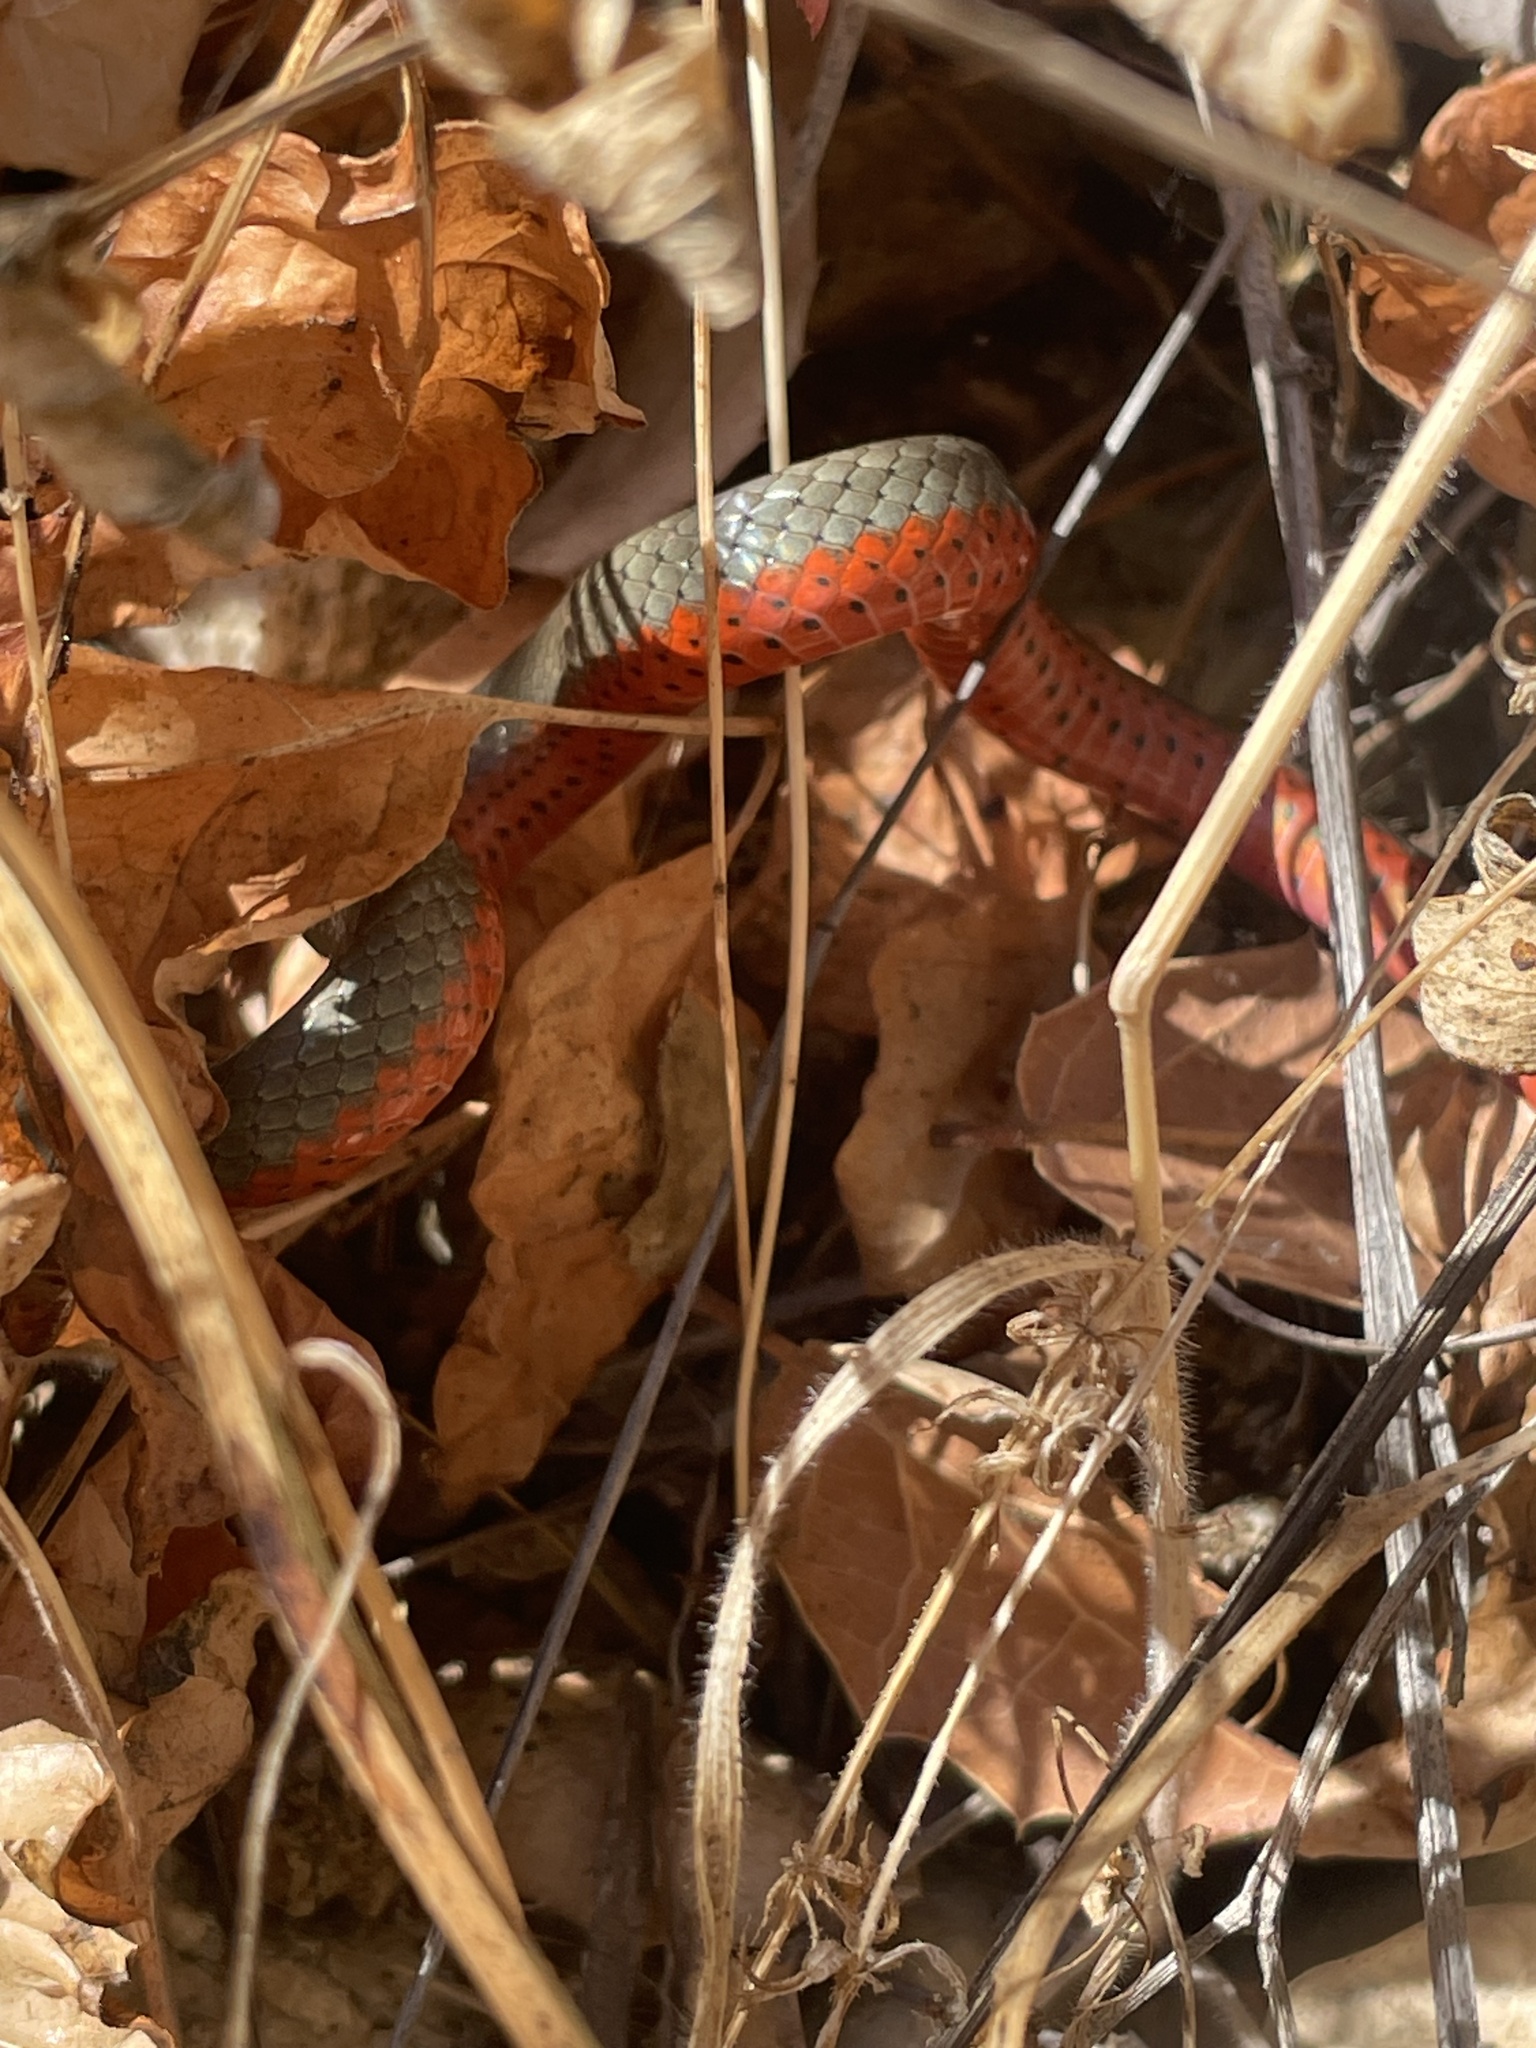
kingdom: Animalia
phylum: Chordata
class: Squamata
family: Colubridae
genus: Diadophis
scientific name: Diadophis punctatus
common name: Ringneck snake
